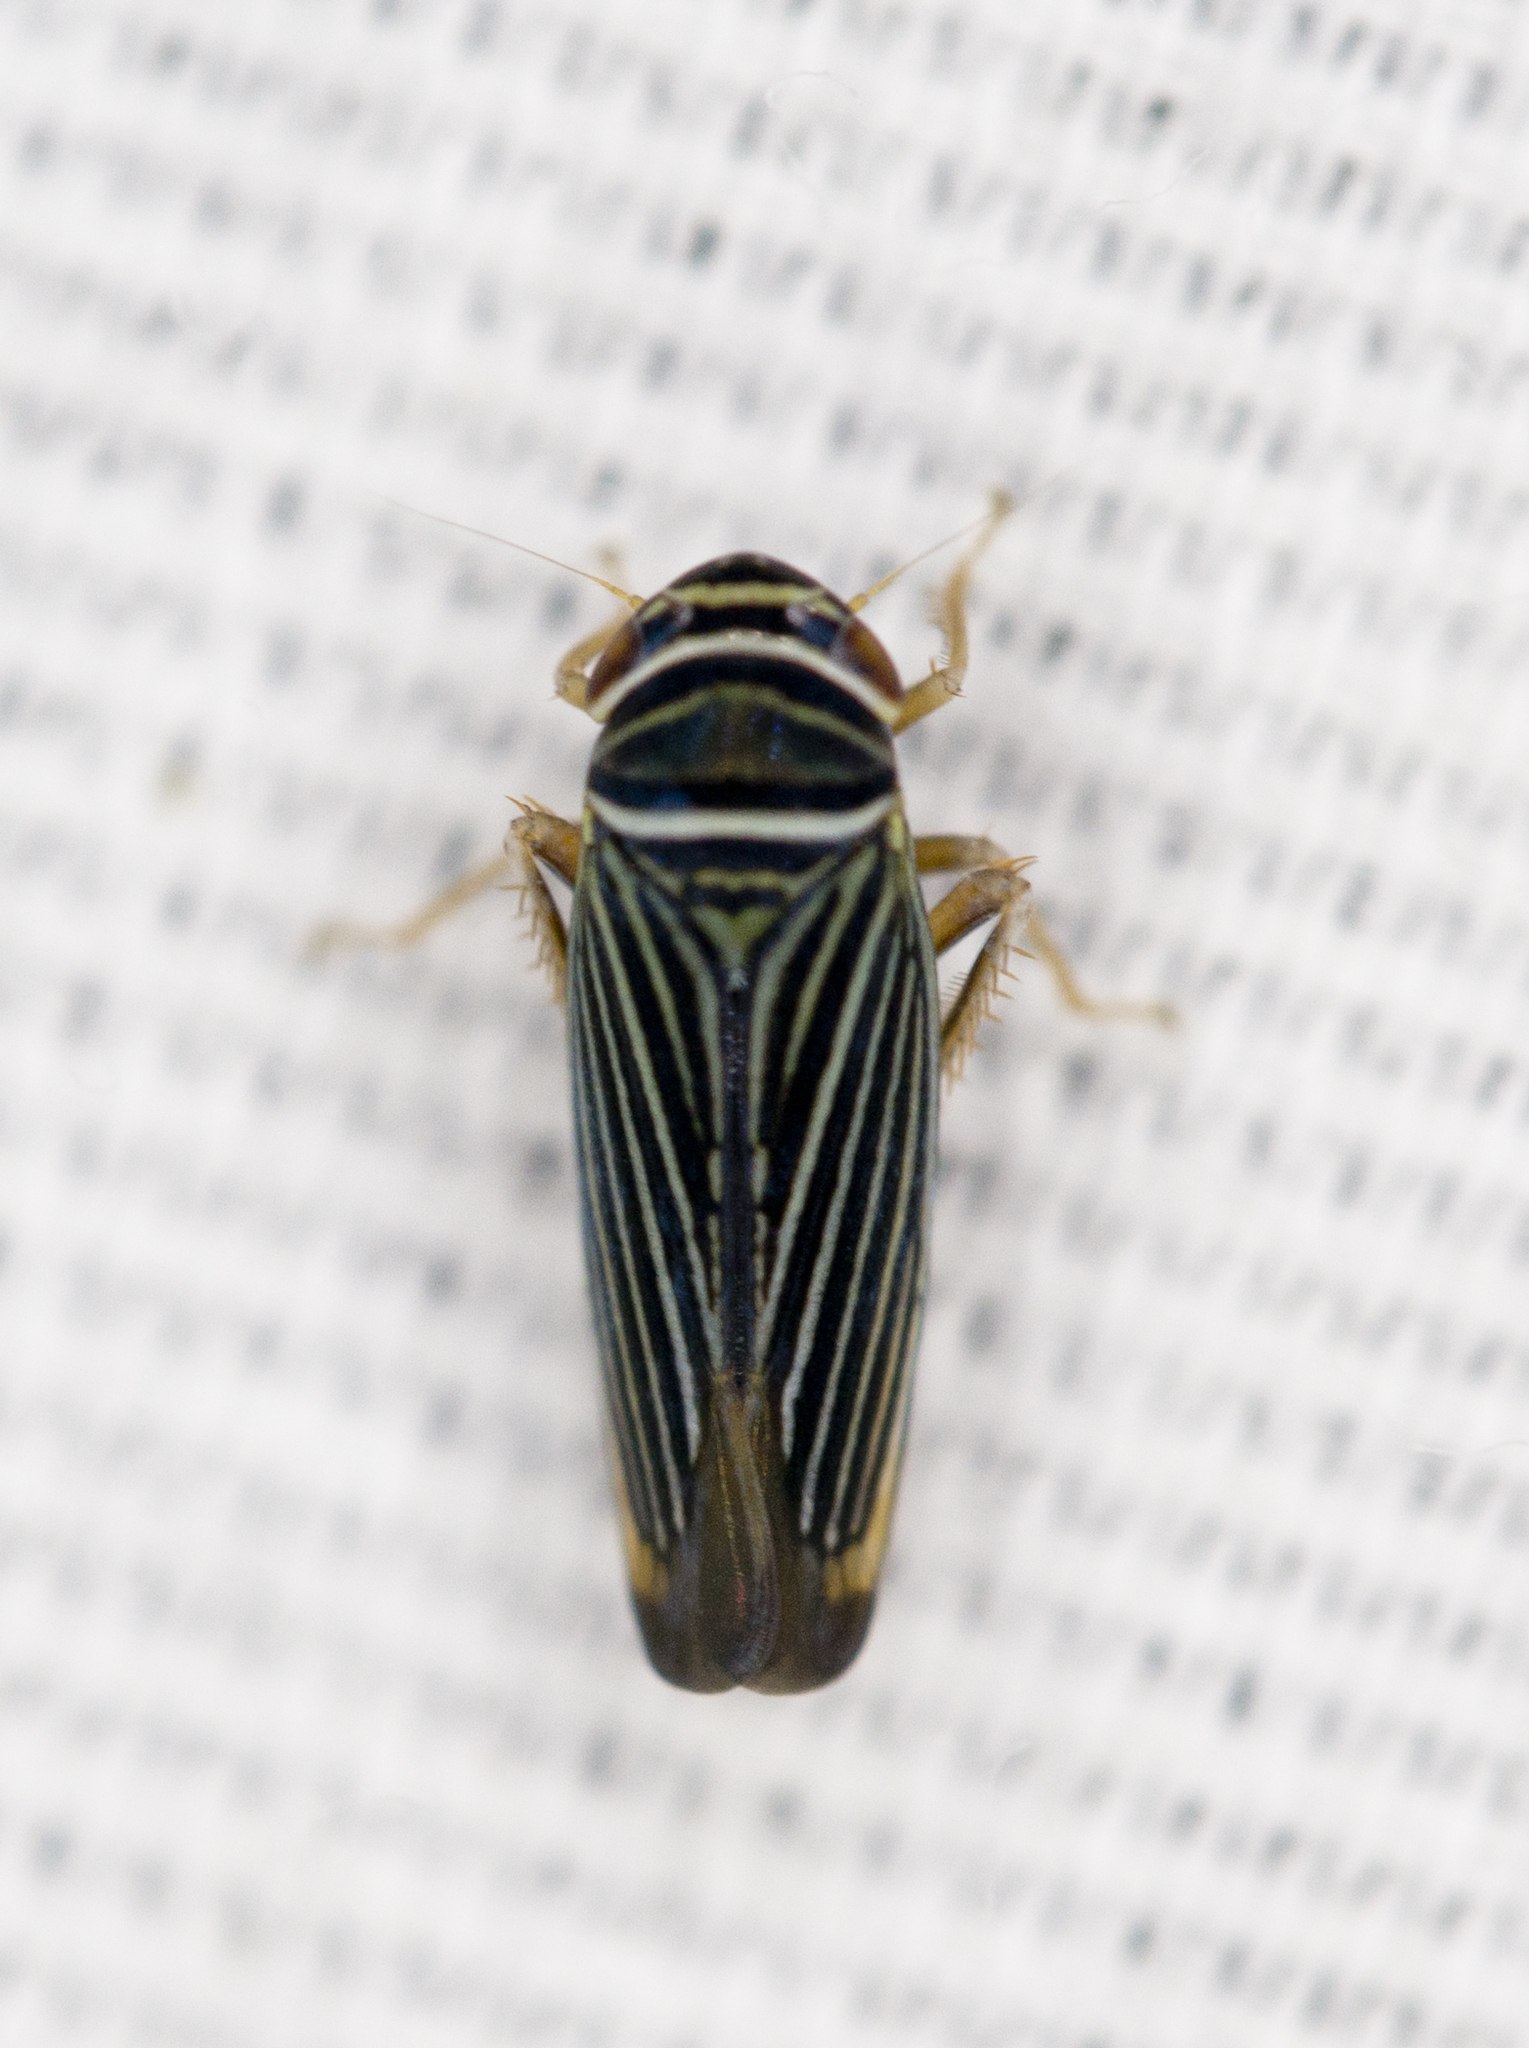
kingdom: Animalia
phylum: Arthropoda
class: Insecta
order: Hemiptera
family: Cicadellidae
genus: Tylozygus
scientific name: Tylozygus bifidus
